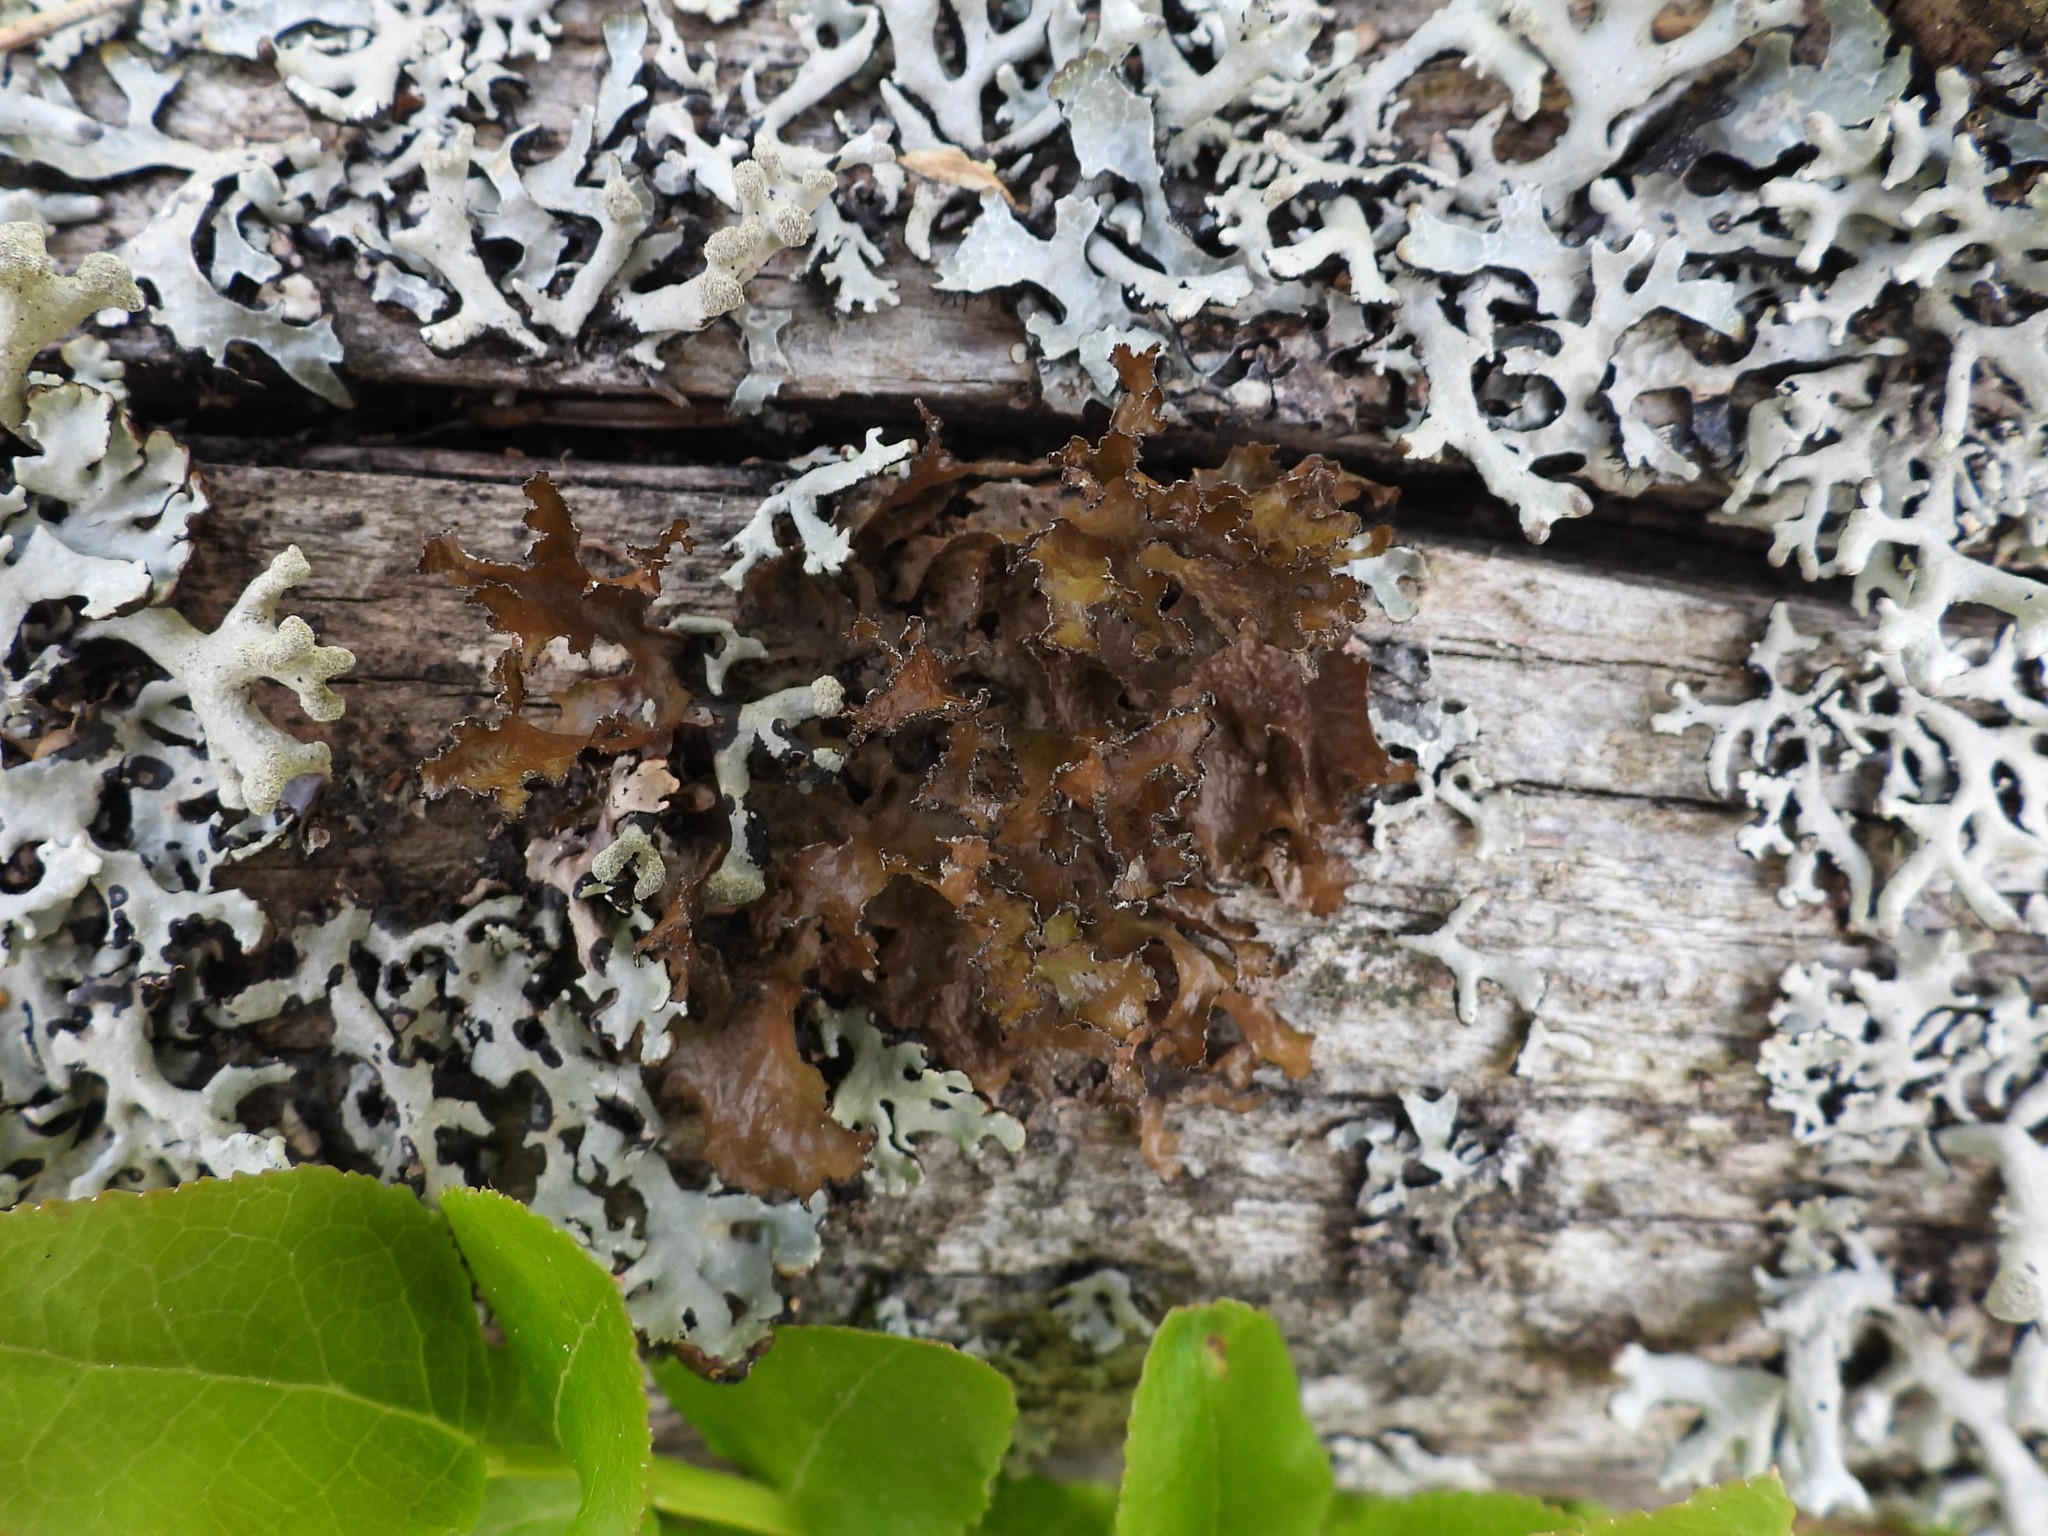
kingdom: Fungi
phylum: Ascomycota
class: Lecanoromycetes
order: Lecanorales
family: Parmeliaceae
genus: Nephromopsis
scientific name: Nephromopsis chlorophylla
